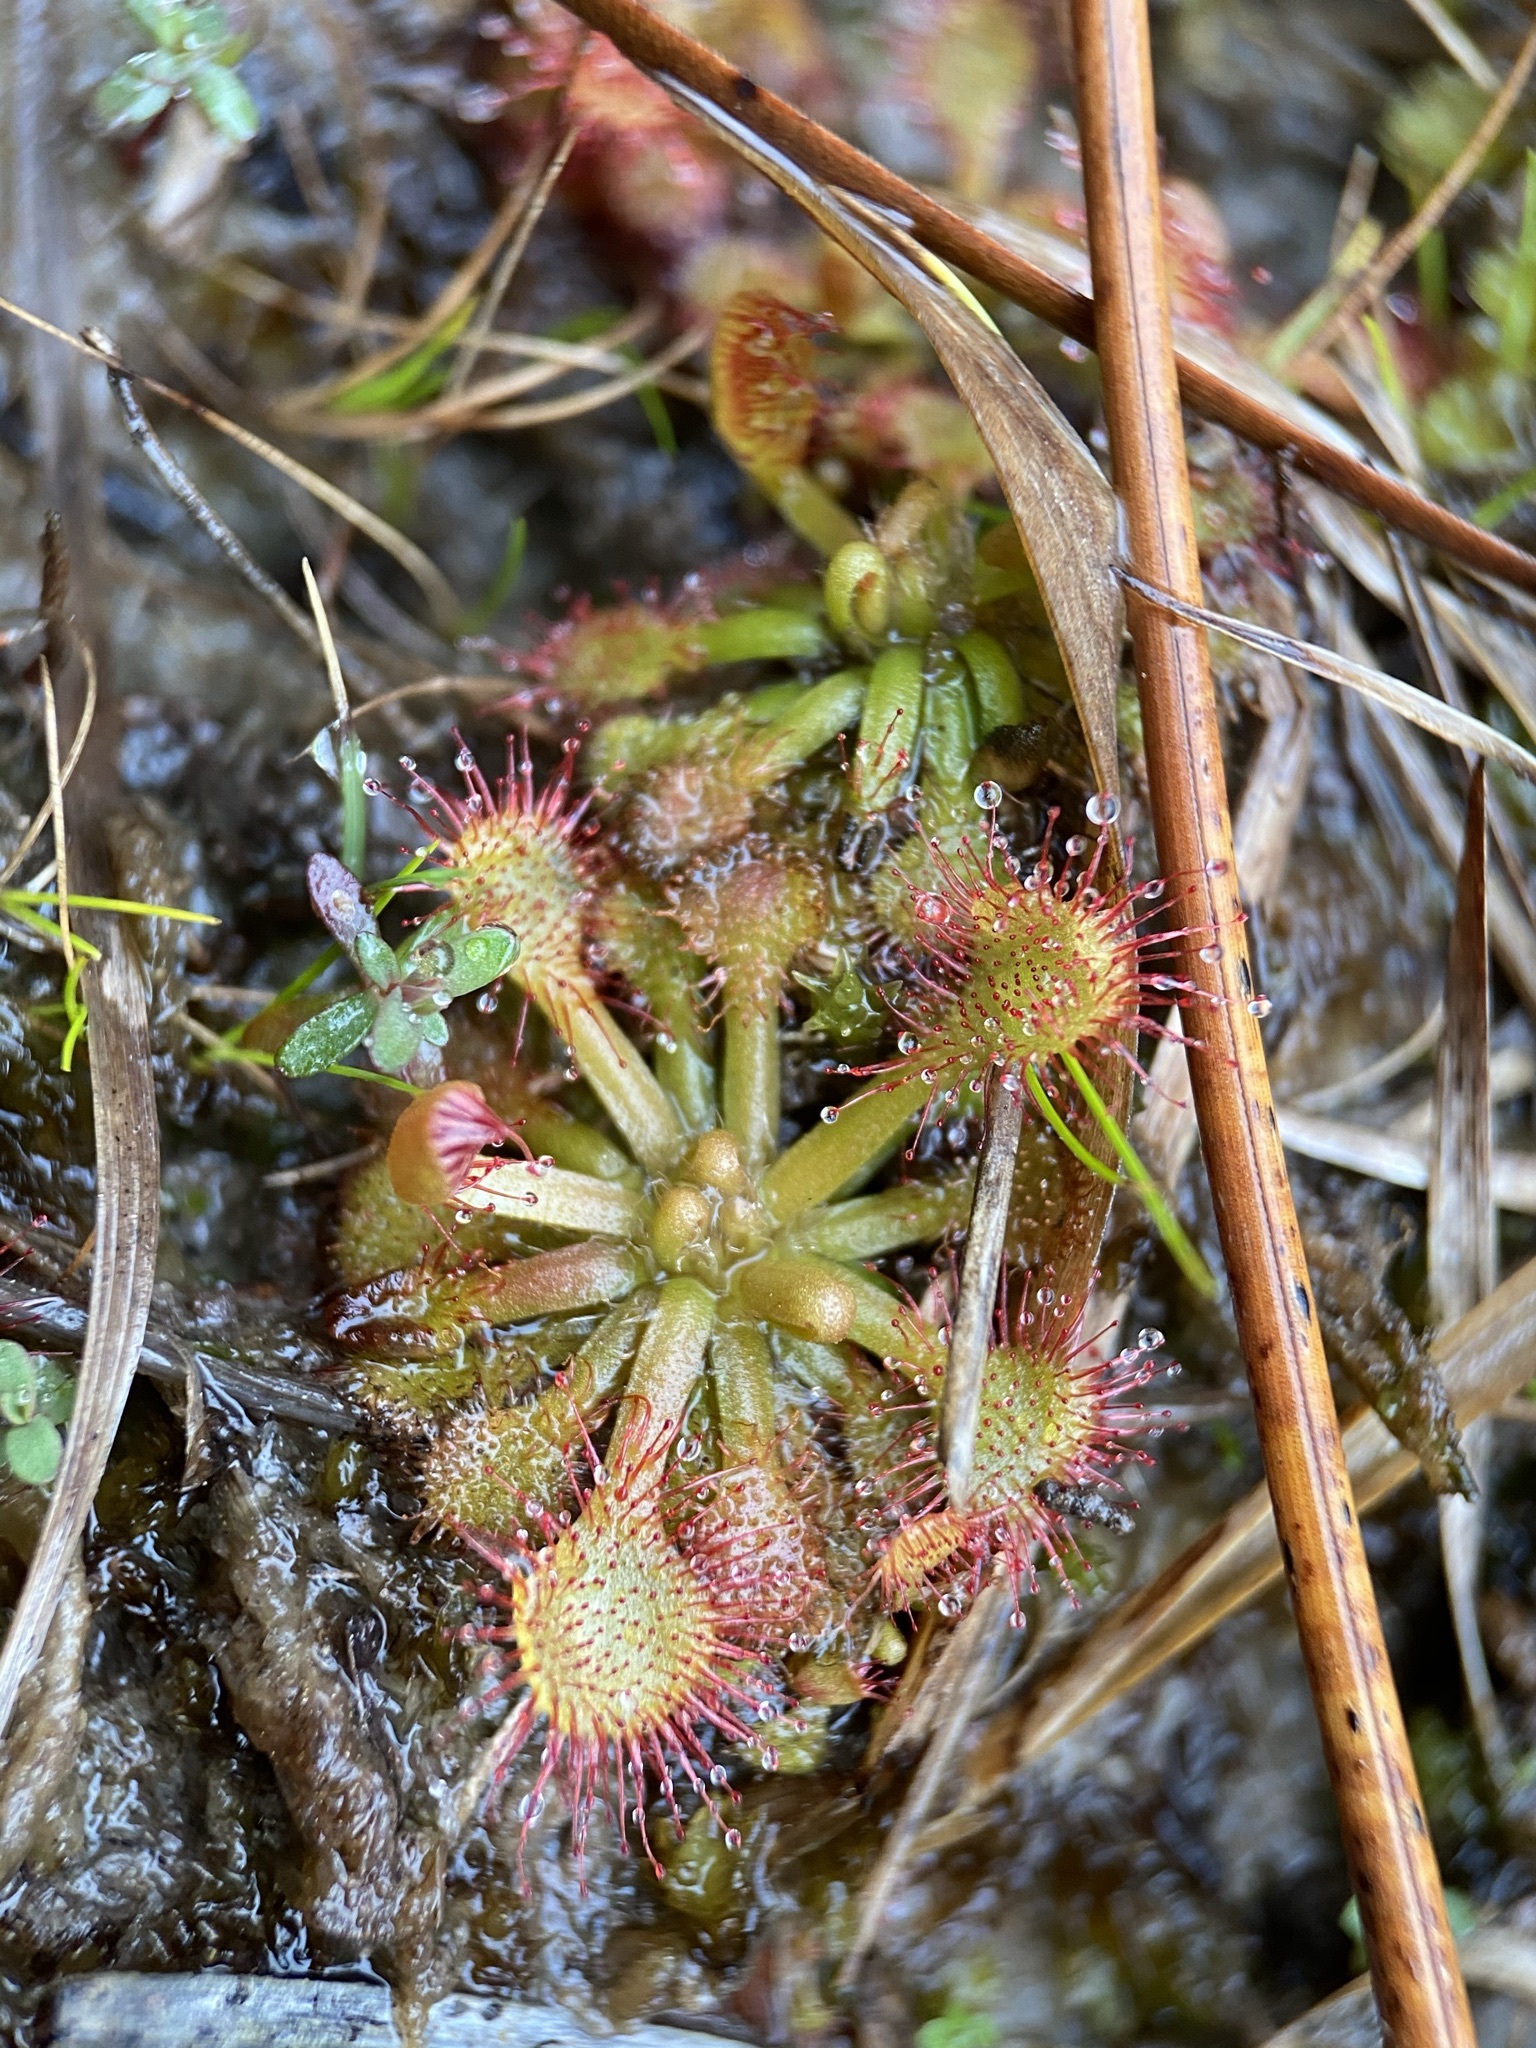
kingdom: Plantae
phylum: Tracheophyta
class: Magnoliopsida
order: Caryophyllales
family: Droseraceae
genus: Drosera
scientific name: Drosera capillaris
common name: Pink sundew
